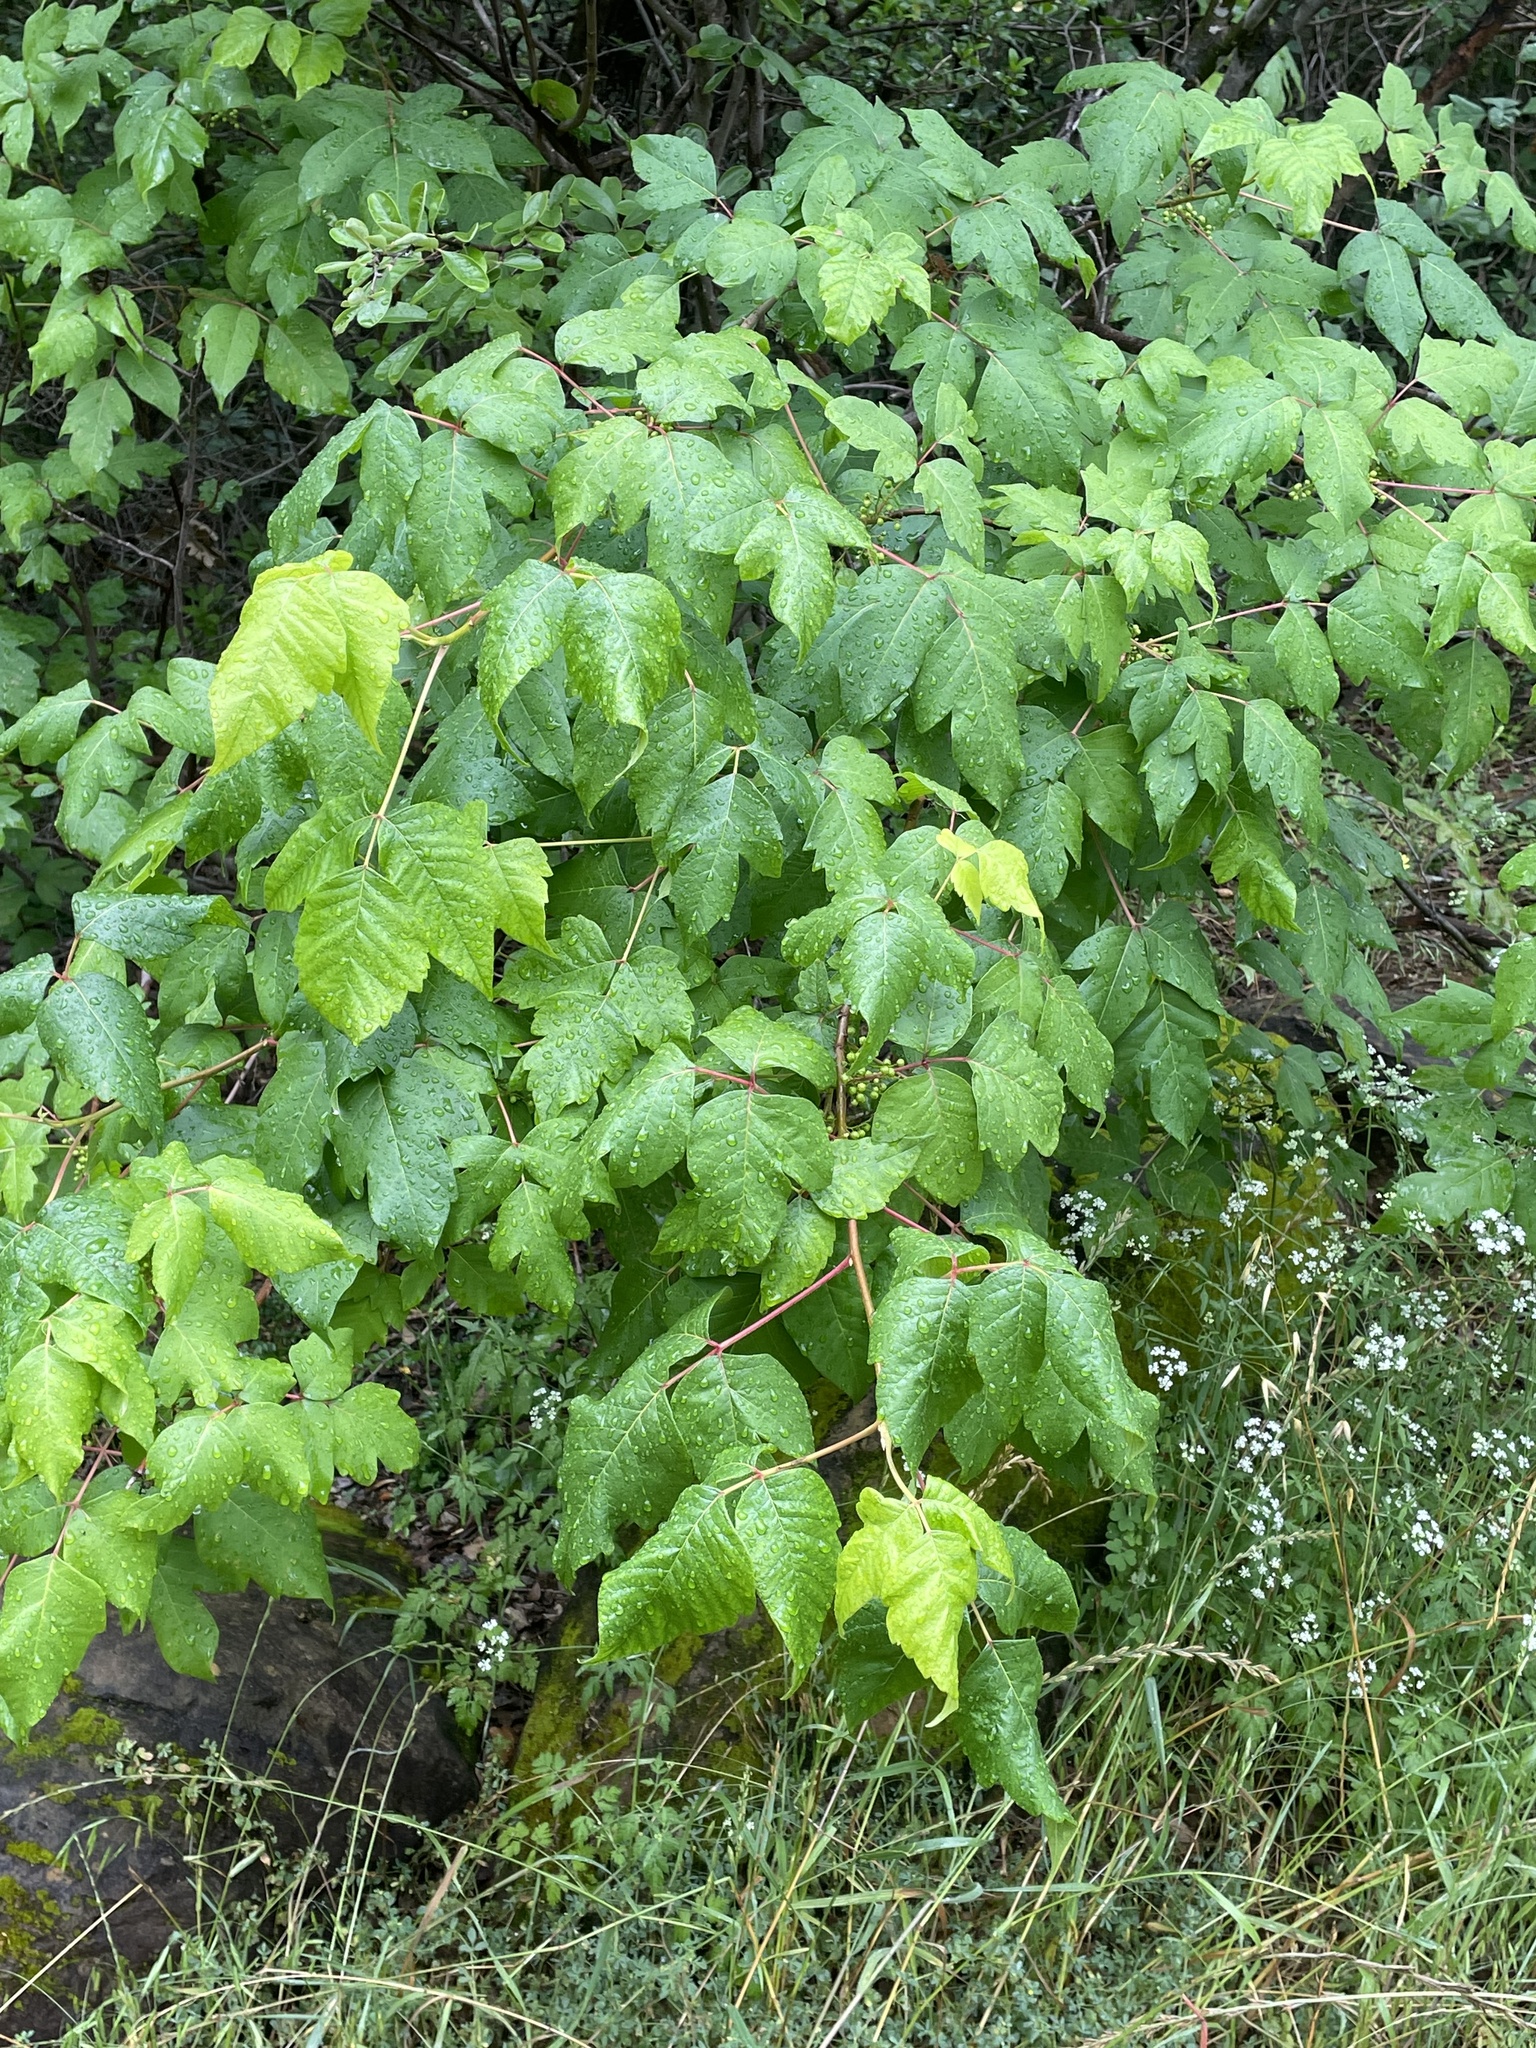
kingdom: Plantae
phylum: Tracheophyta
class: Magnoliopsida
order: Sapindales
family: Anacardiaceae
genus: Toxicodendron
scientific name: Toxicodendron radicans
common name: Poison ivy
